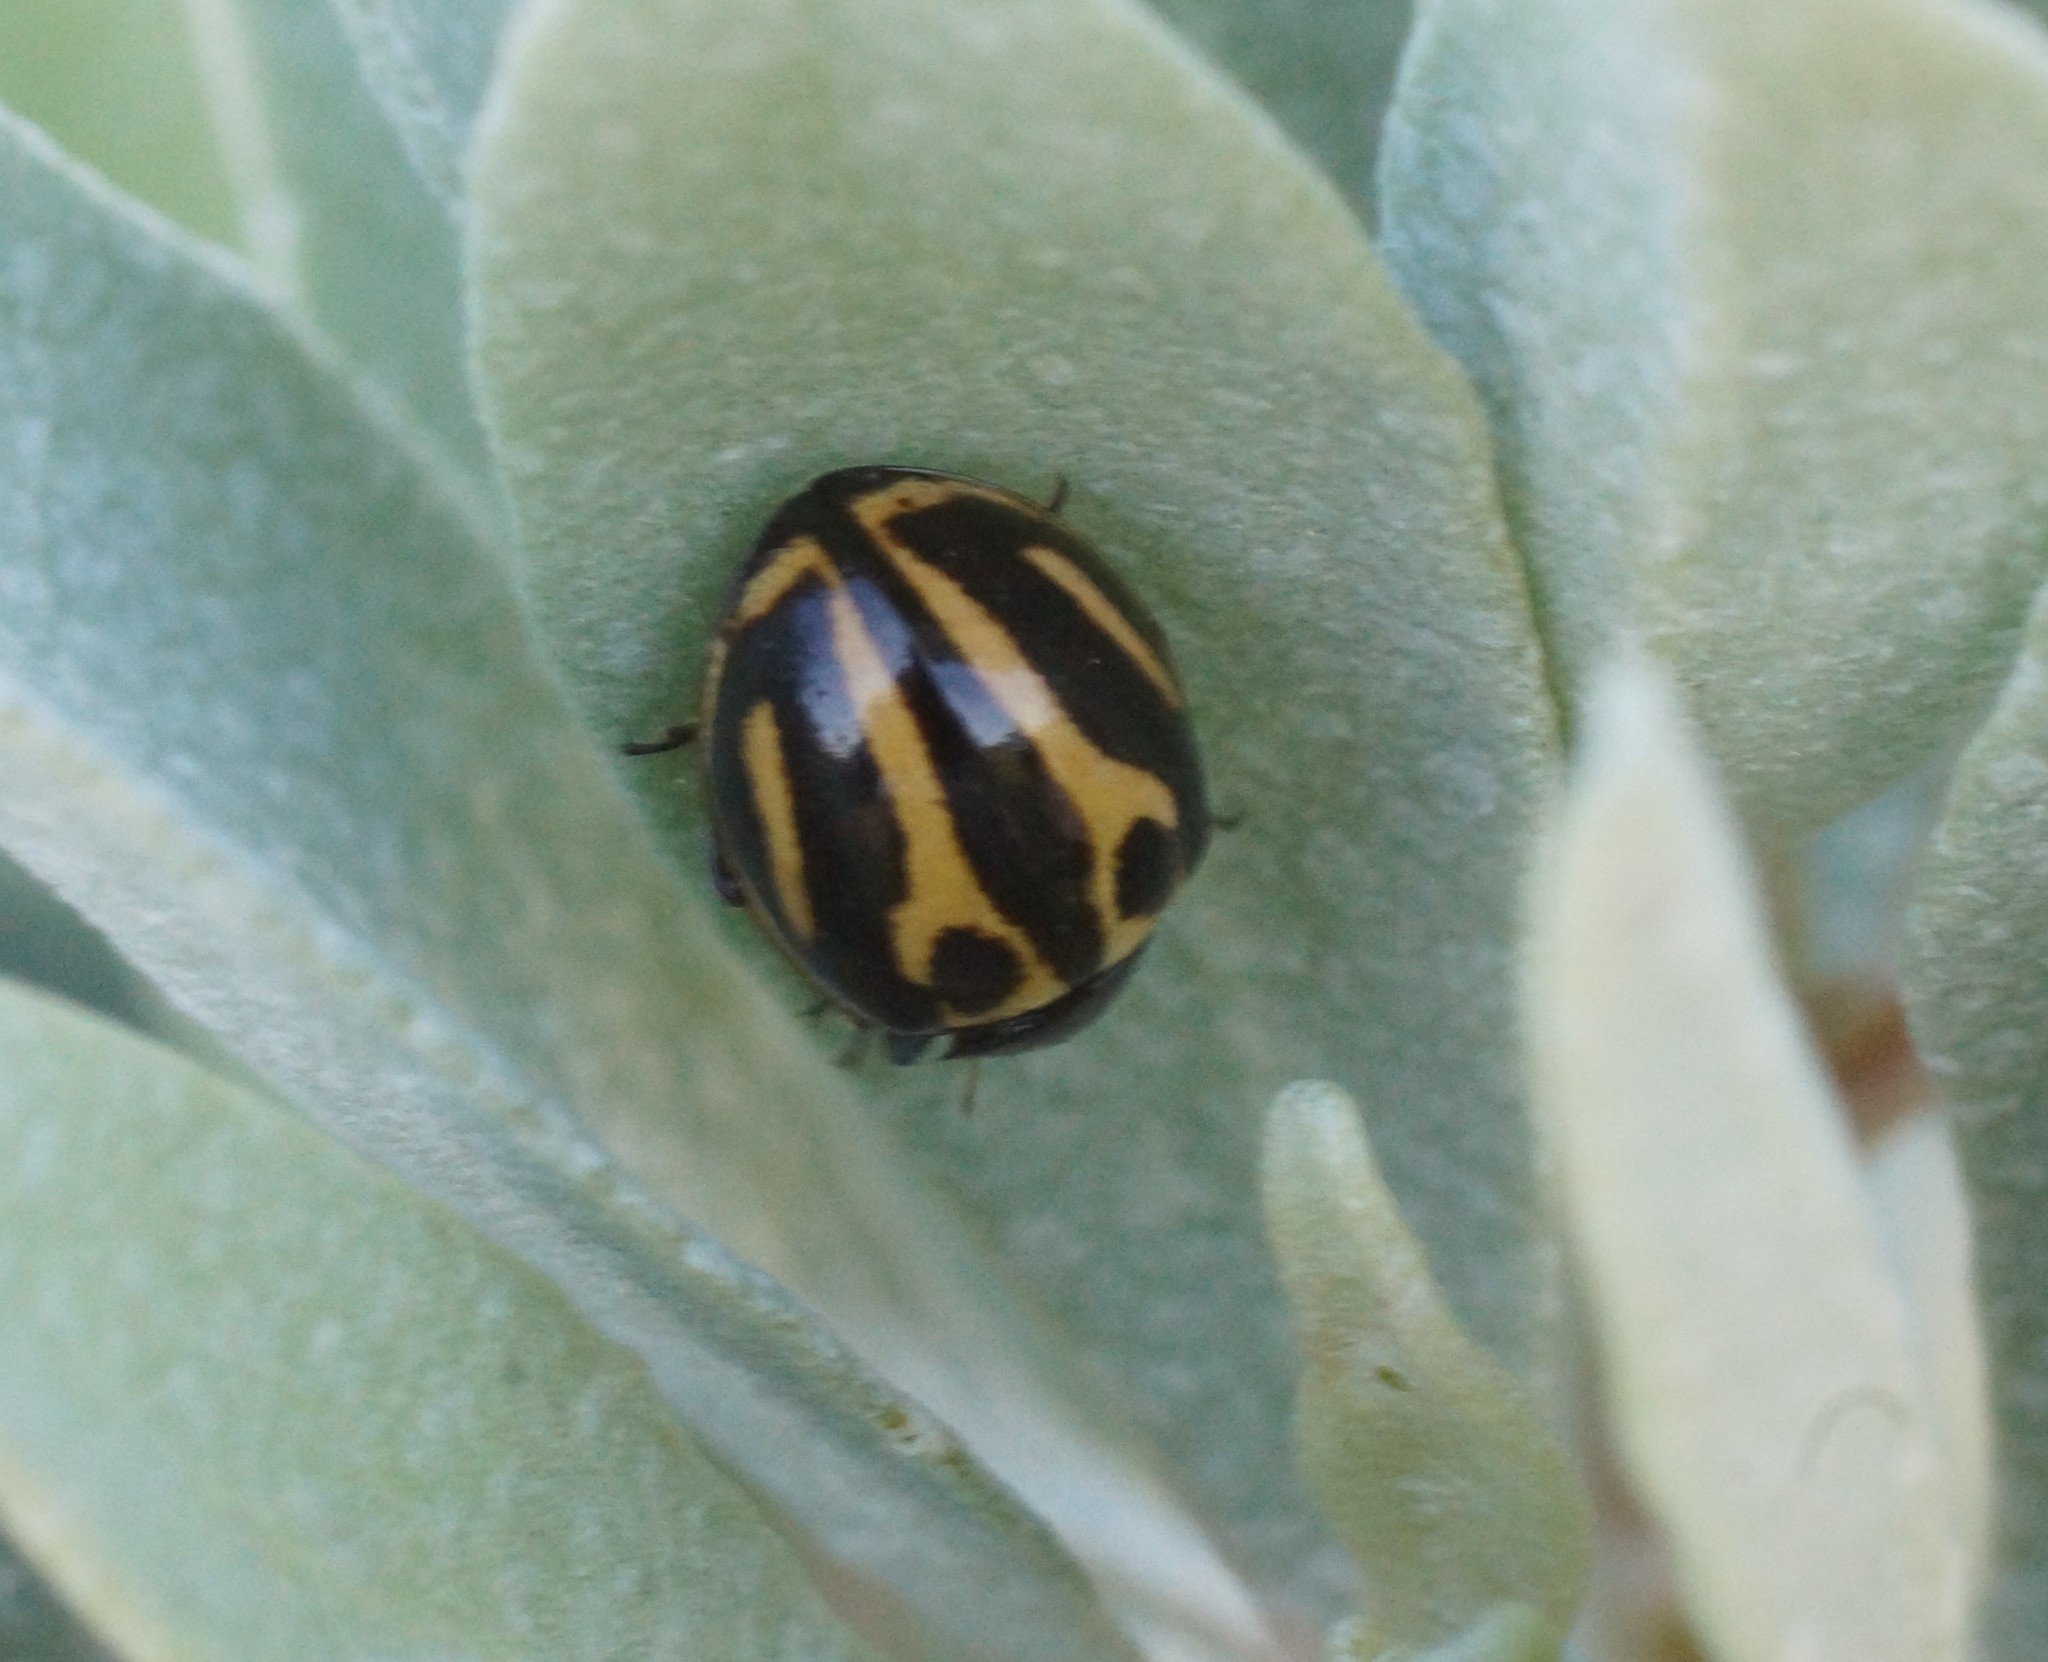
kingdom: Animalia
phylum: Arthropoda
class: Insecta
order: Coleoptera
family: Coccinellidae
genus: Micraspis
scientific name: Micraspis
